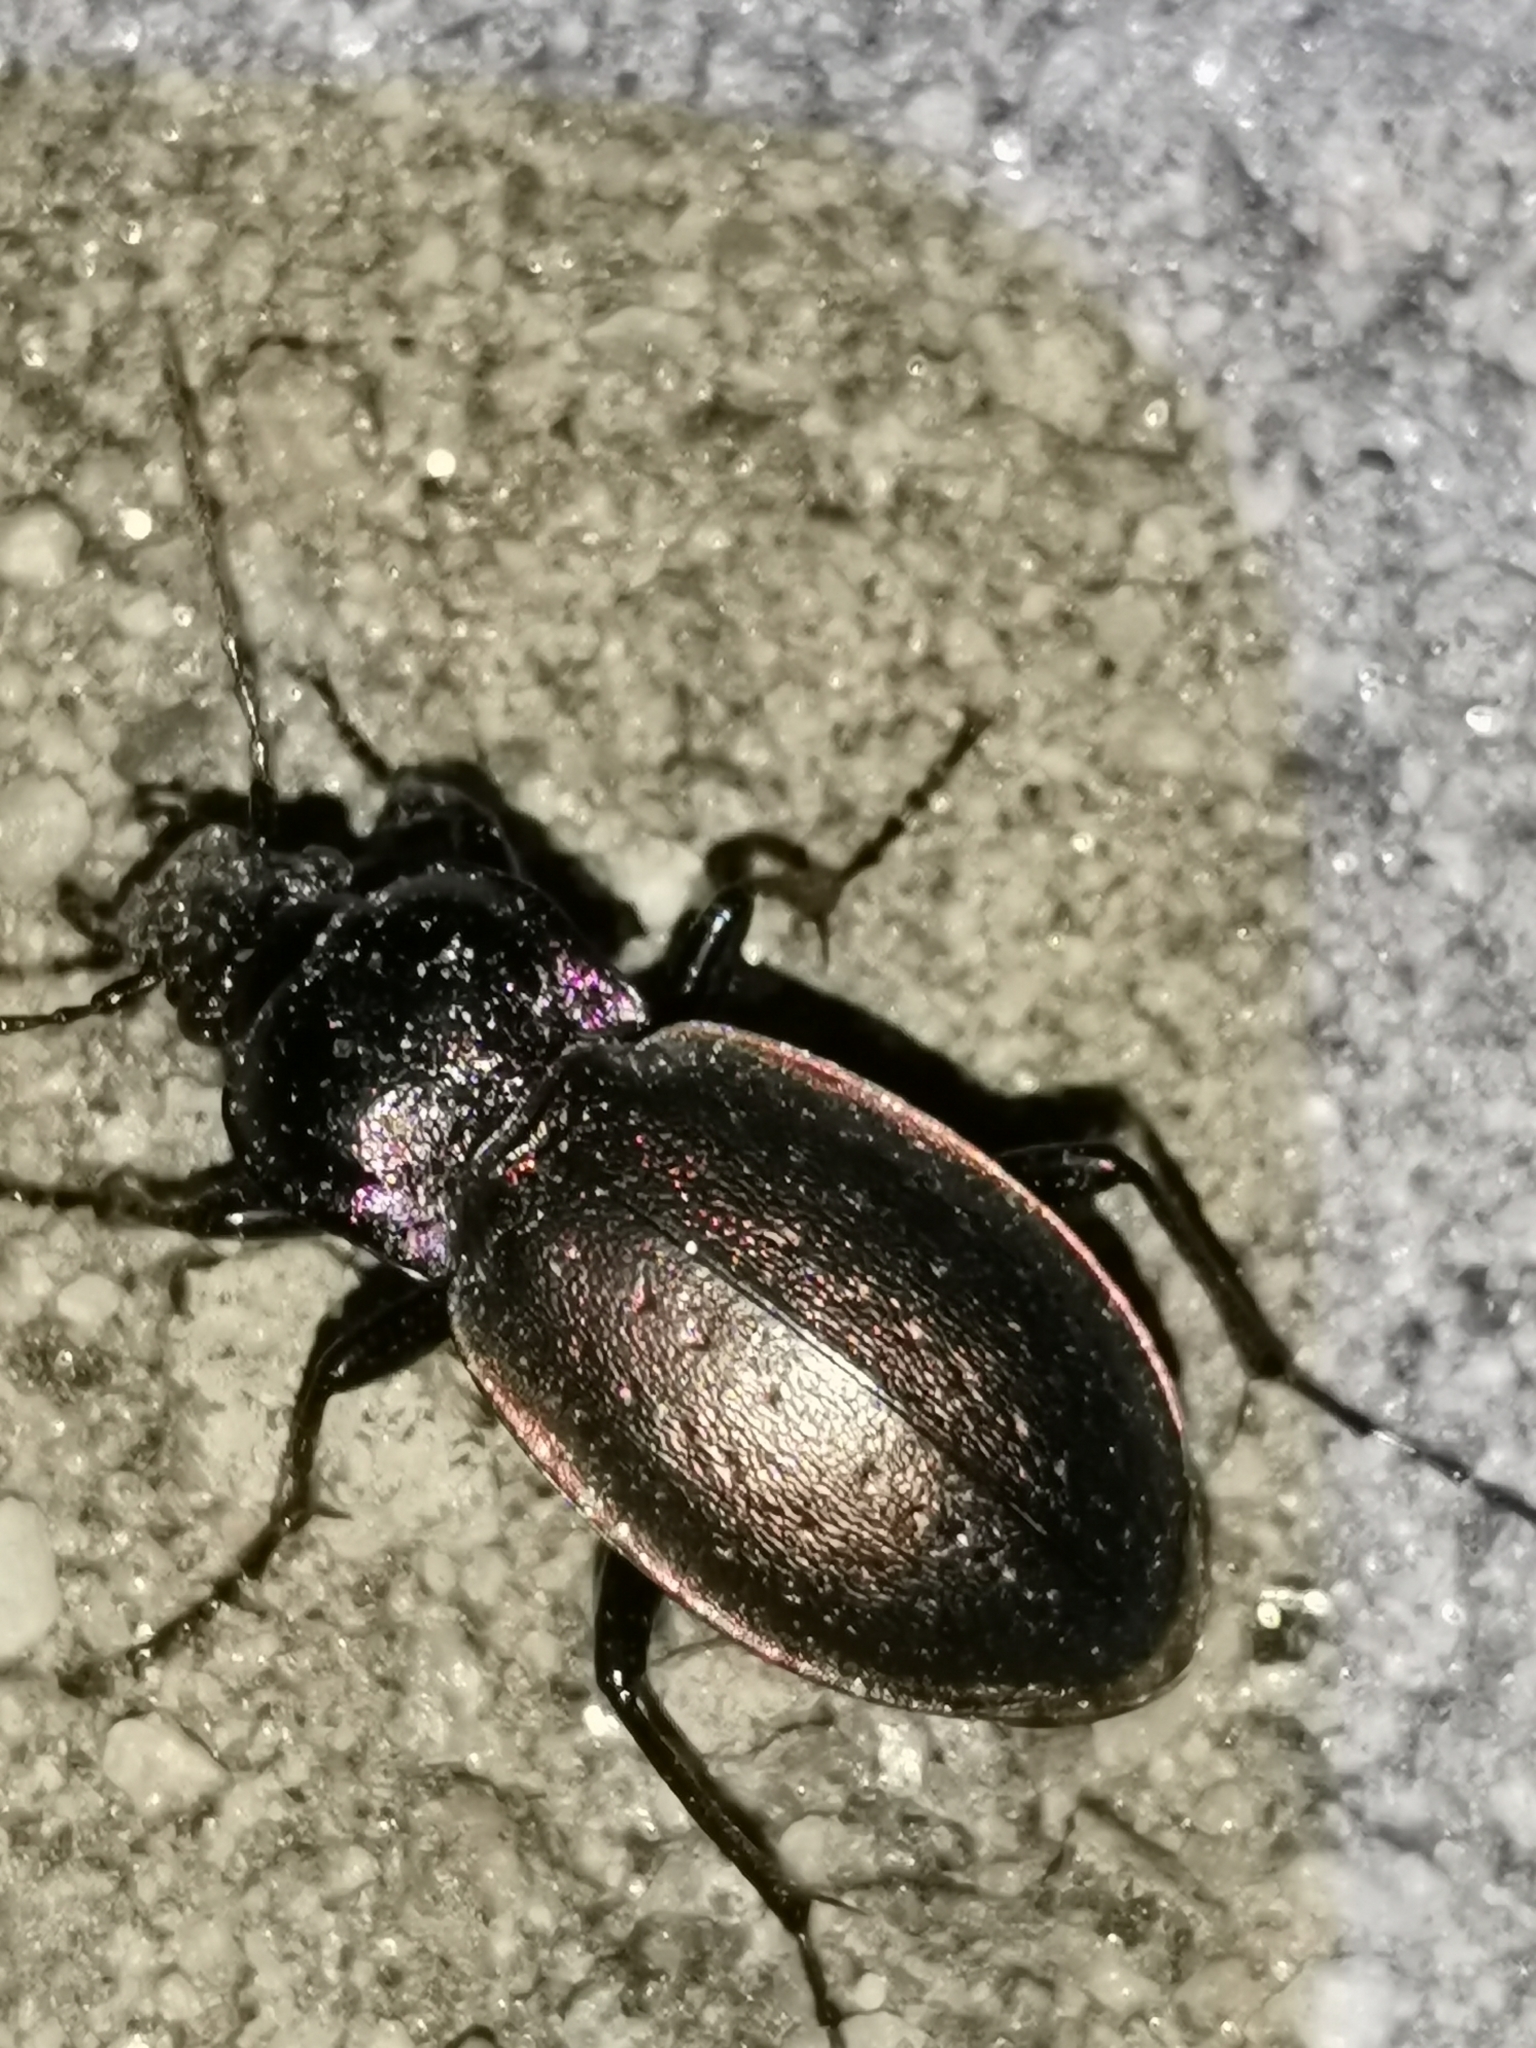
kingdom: Animalia
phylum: Arthropoda
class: Insecta
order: Coleoptera
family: Carabidae
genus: Carabus
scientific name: Carabus nemoralis
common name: European ground beetle
